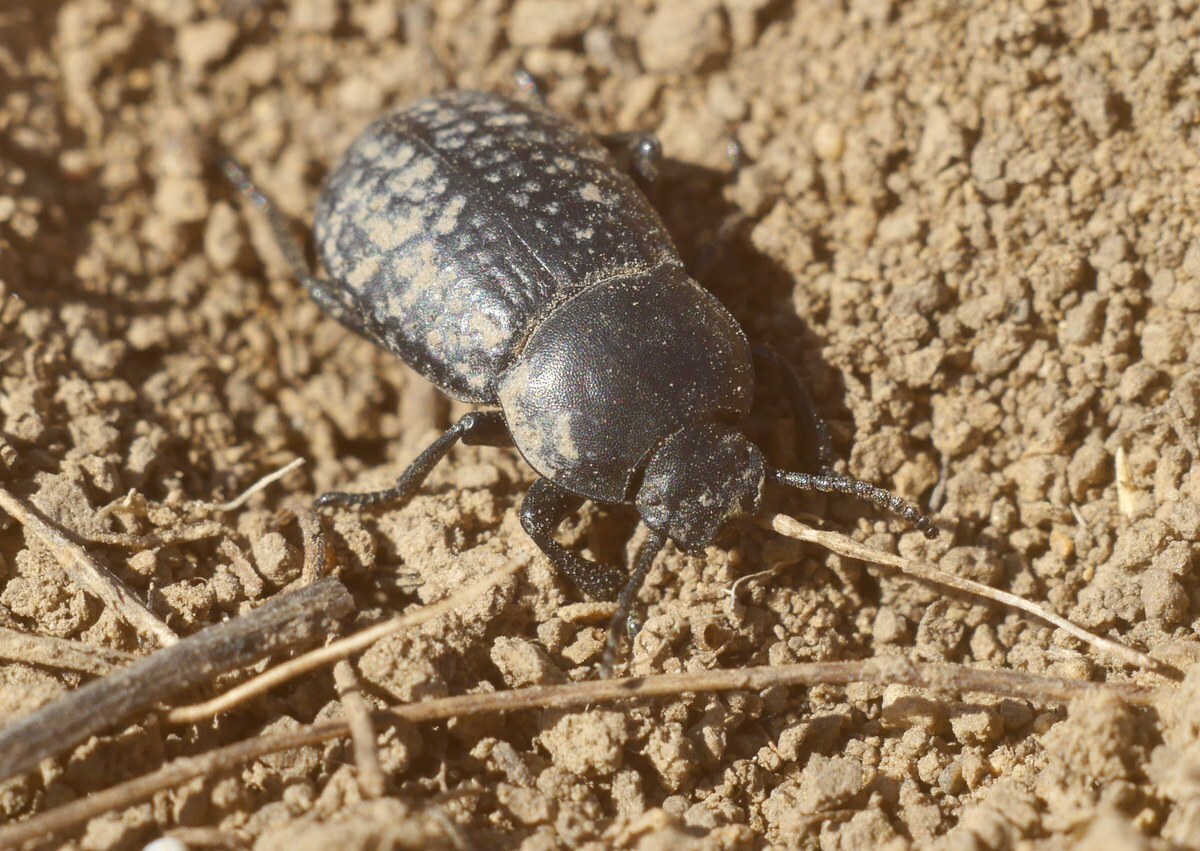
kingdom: Animalia
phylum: Arthropoda
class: Insecta
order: Coleoptera
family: Tenebrionidae
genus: Dendarus
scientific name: Dendarus punctatus
